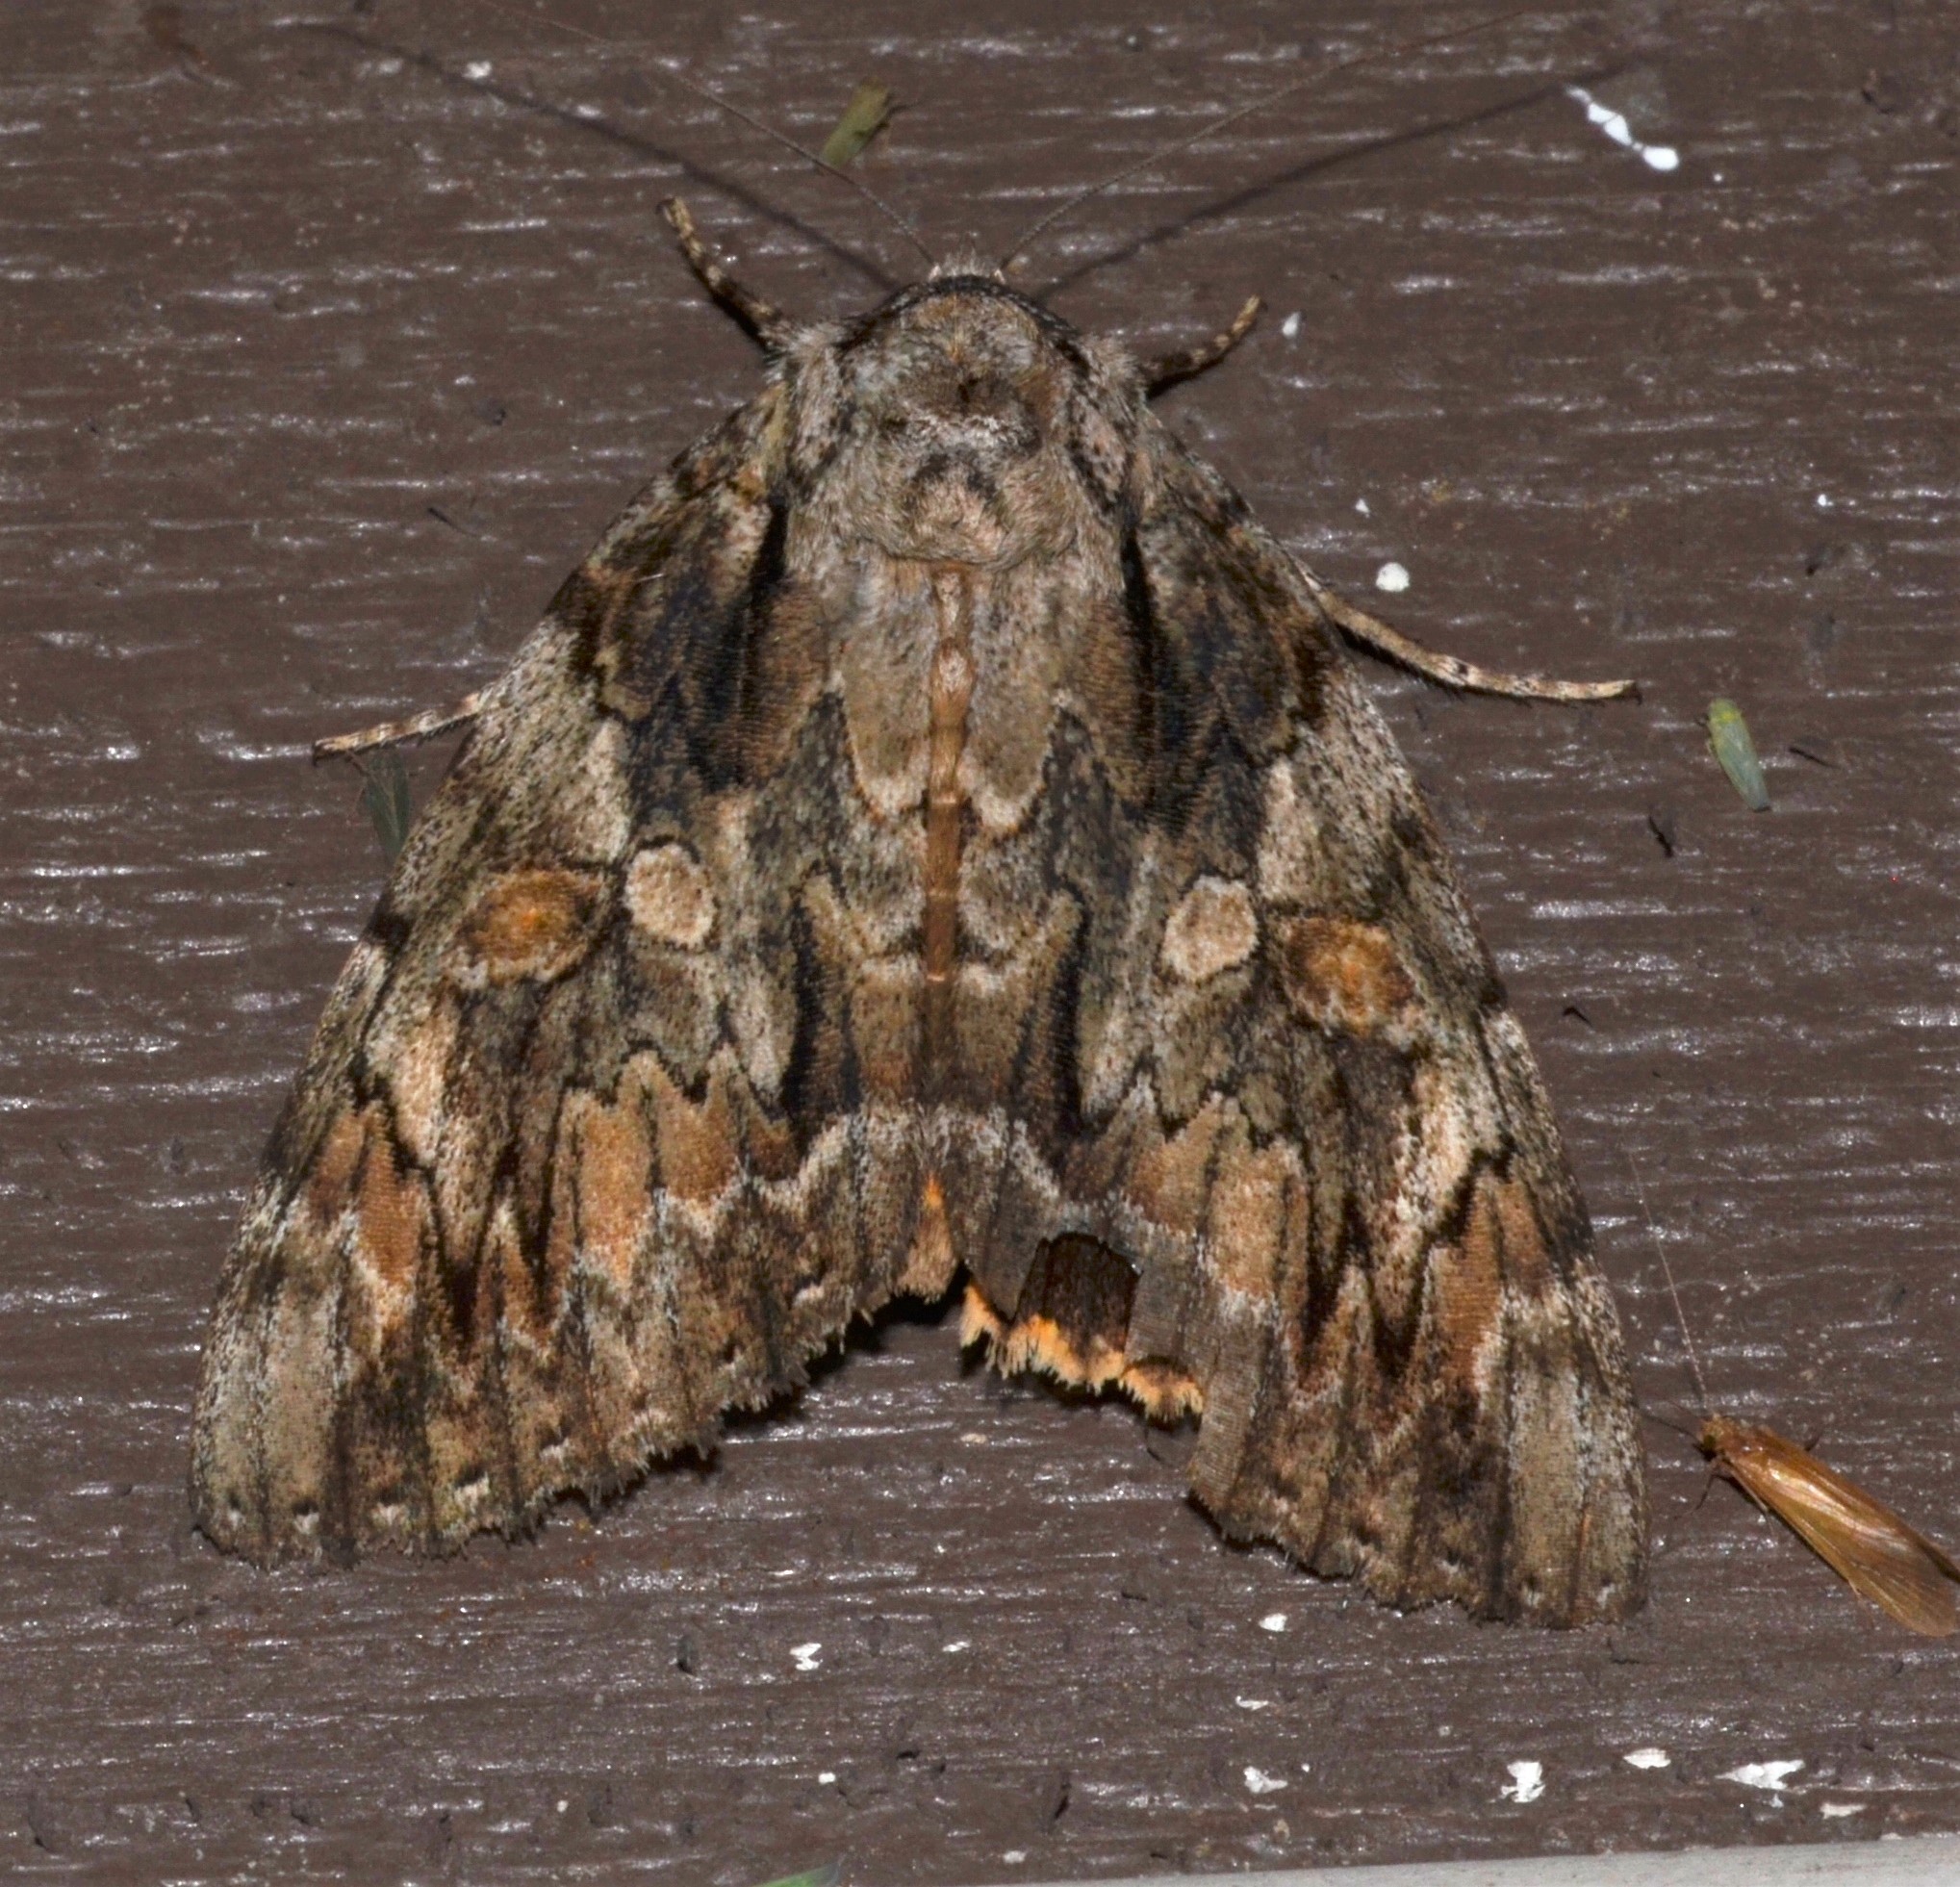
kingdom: Animalia
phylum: Arthropoda
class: Insecta
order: Lepidoptera
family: Erebidae
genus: Catocala
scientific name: Catocala neogama
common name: Bride underwing
